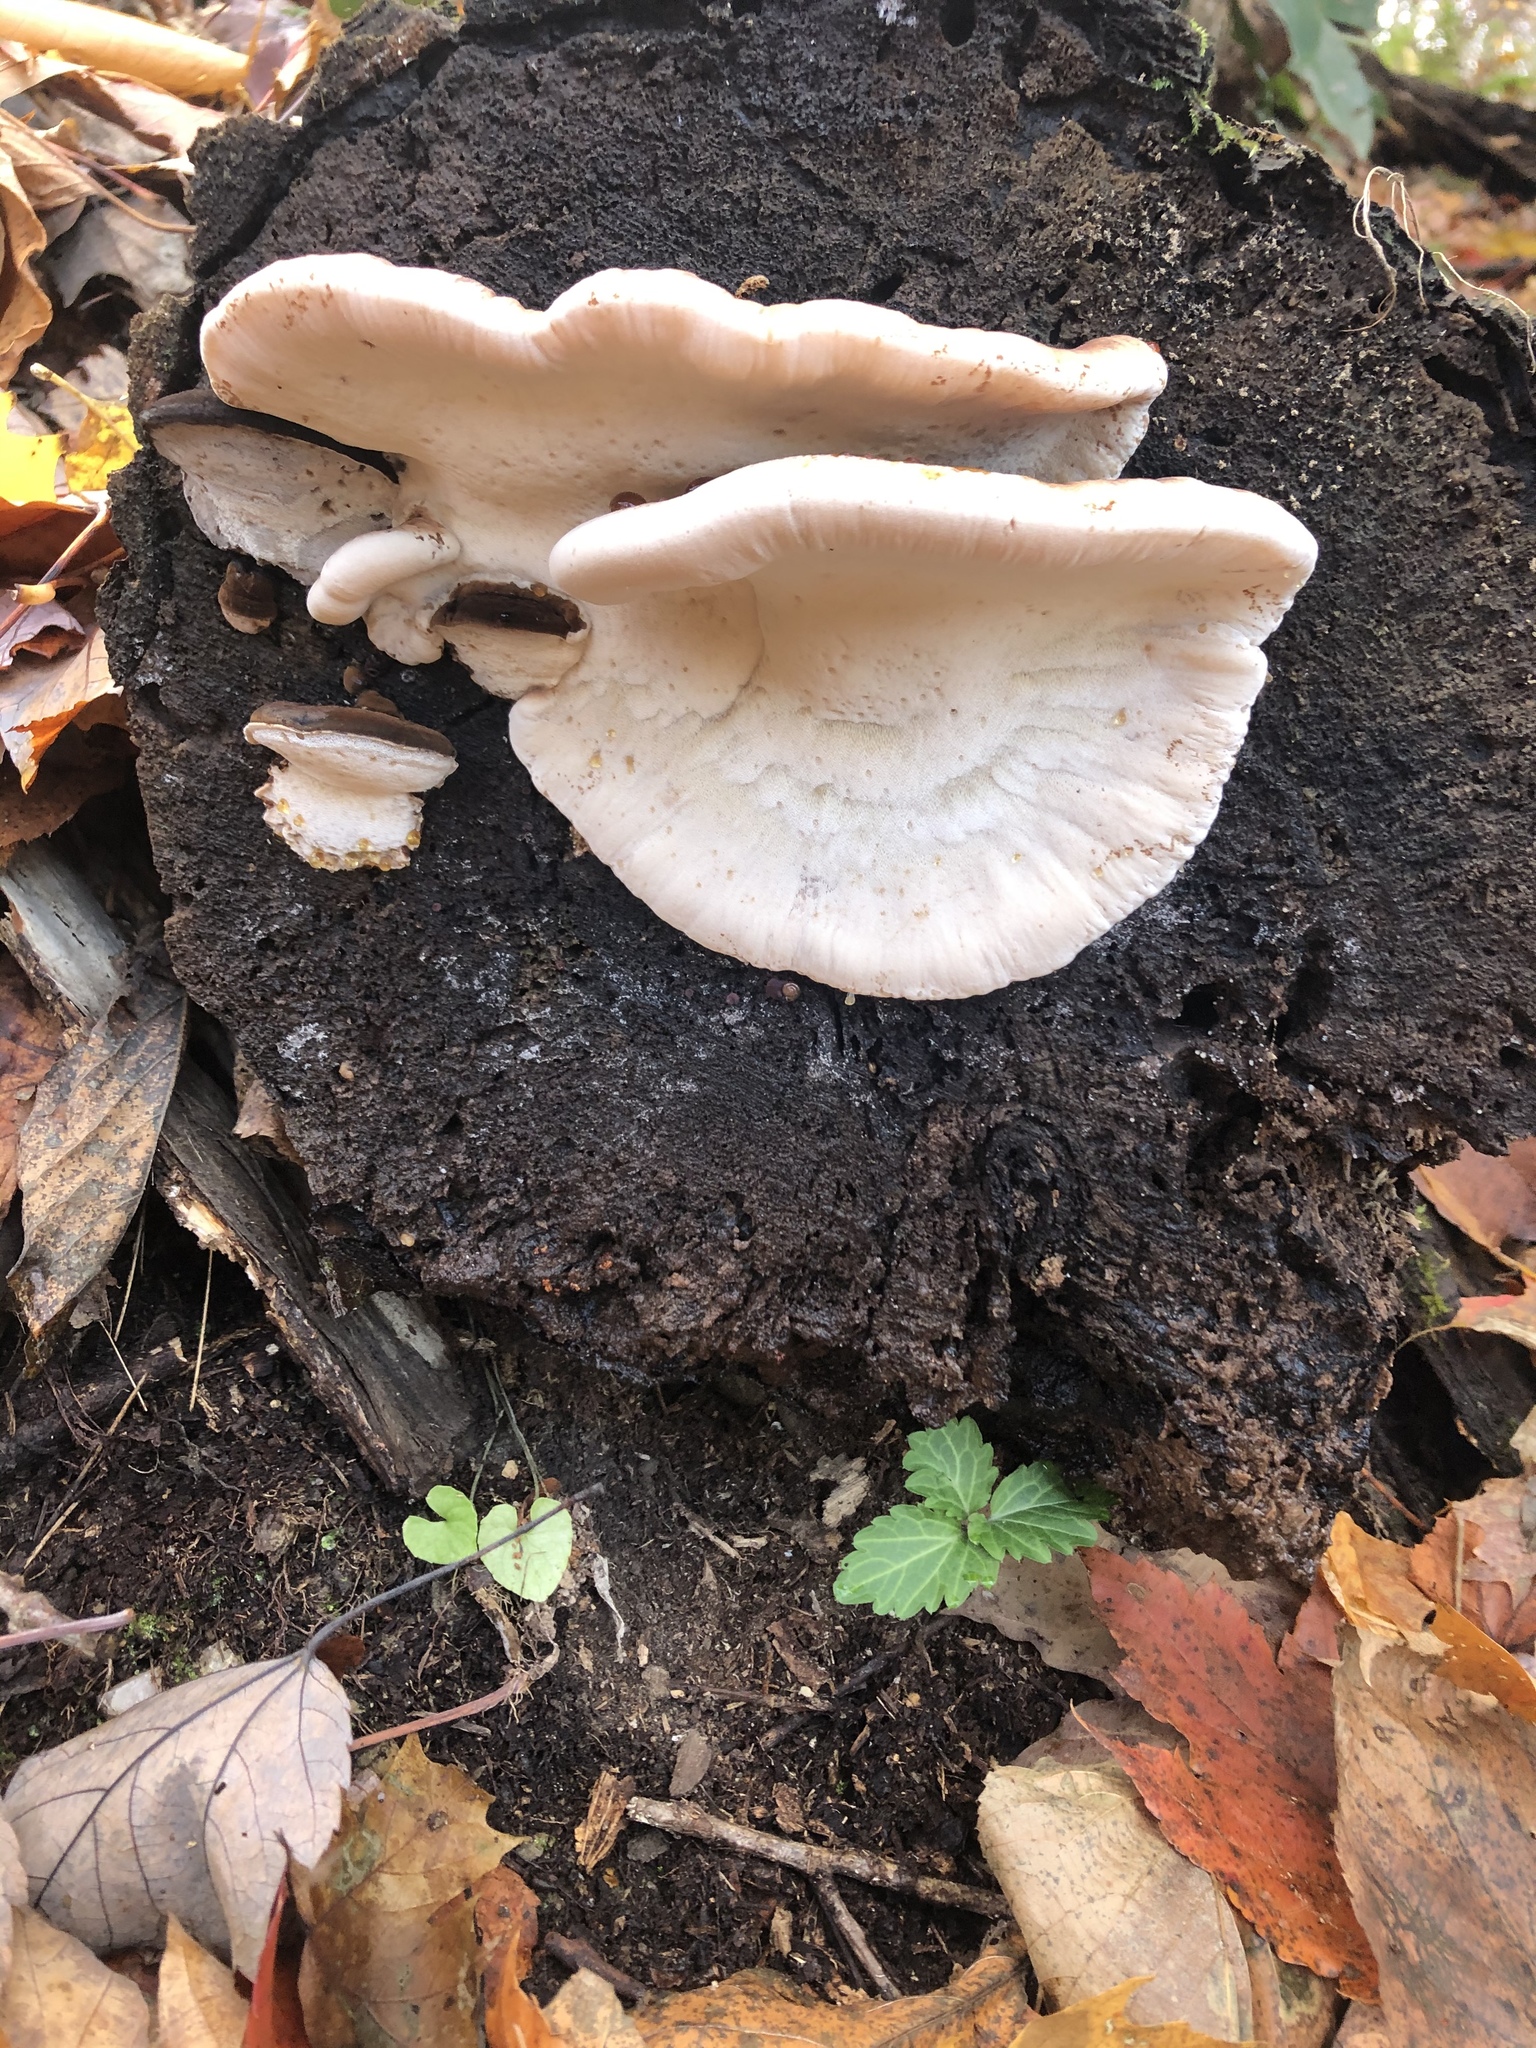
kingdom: Fungi
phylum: Basidiomycota
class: Agaricomycetes
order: Polyporales
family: Ischnodermataceae
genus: Ischnoderma
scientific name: Ischnoderma resinosum
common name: Resinous polypore
